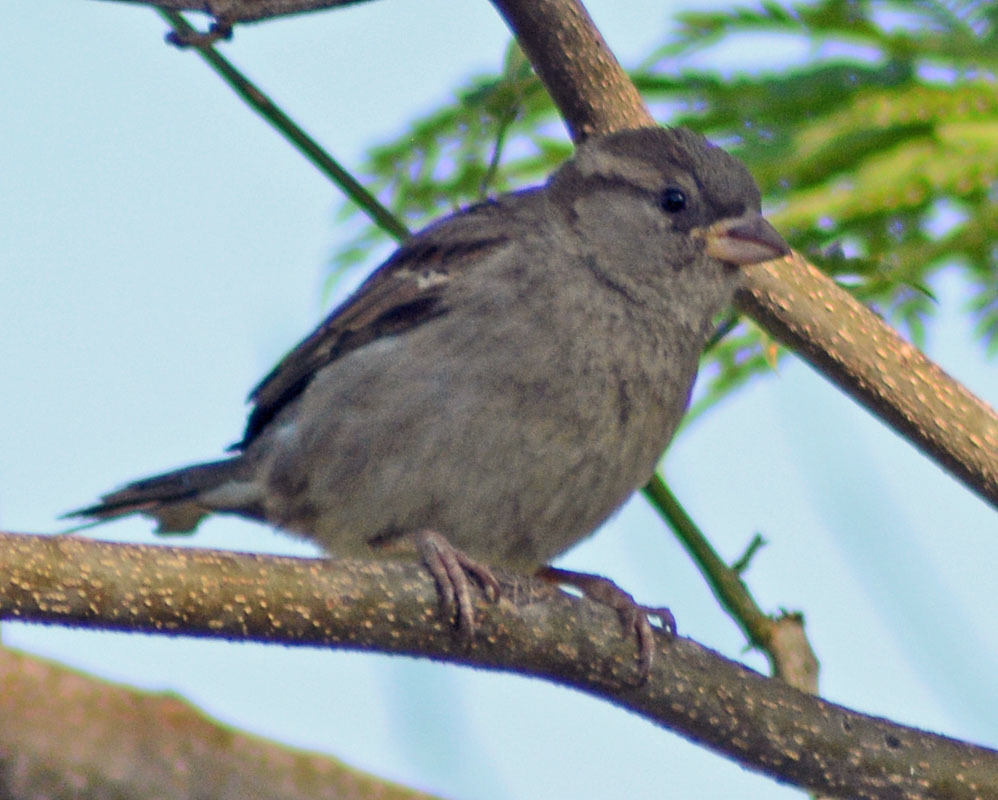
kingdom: Animalia
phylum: Chordata
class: Aves
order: Passeriformes
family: Passeridae
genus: Passer
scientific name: Passer domesticus
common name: House sparrow
